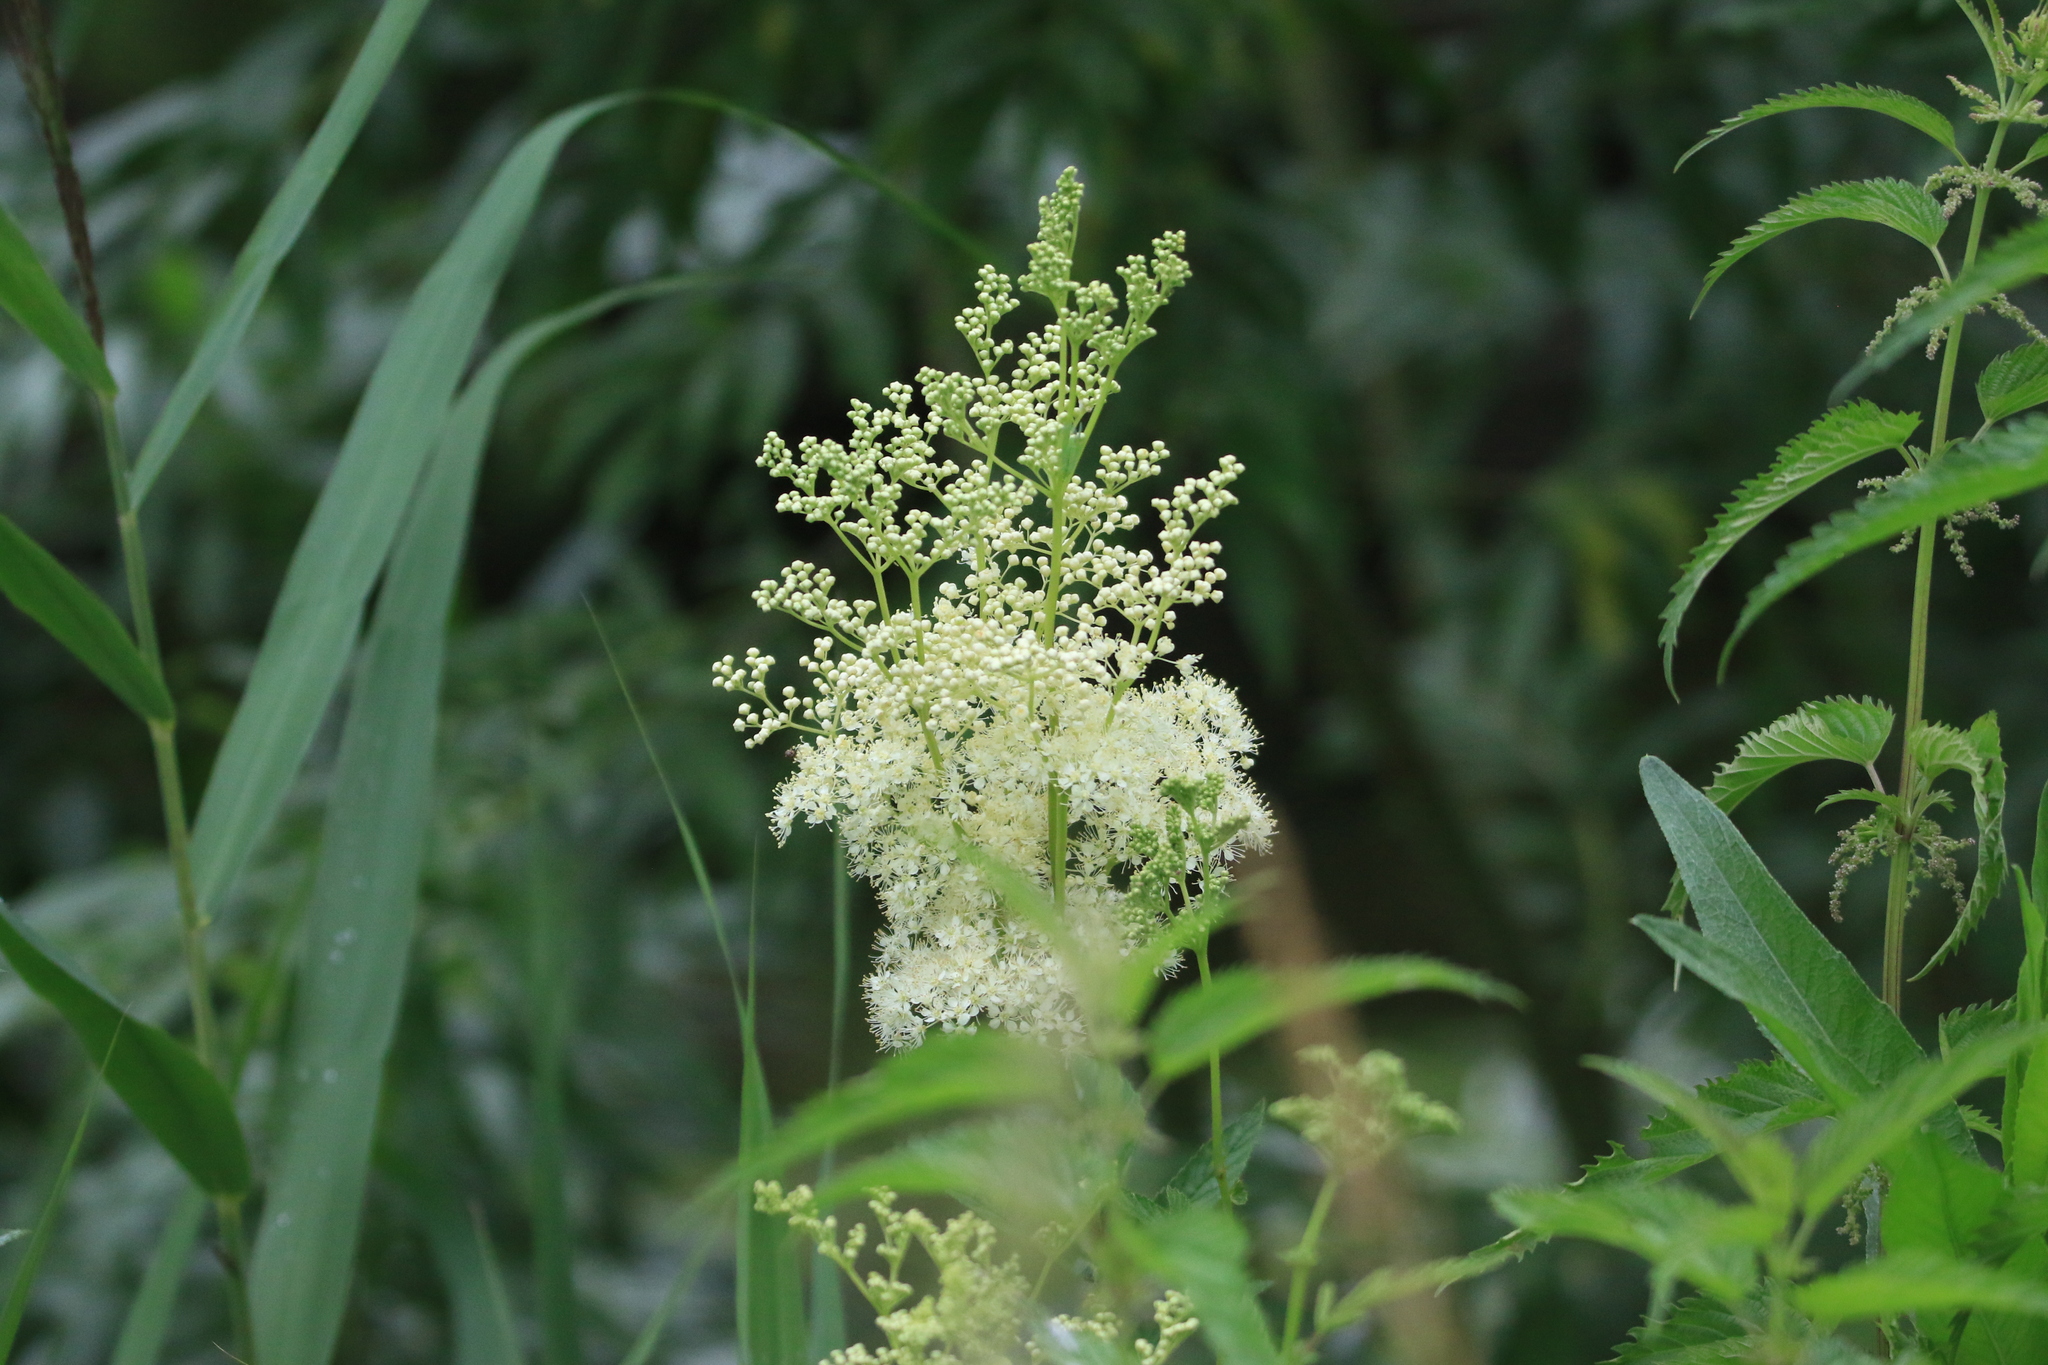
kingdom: Plantae
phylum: Tracheophyta
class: Magnoliopsida
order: Rosales
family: Rosaceae
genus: Filipendula
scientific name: Filipendula ulmaria
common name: Meadowsweet
